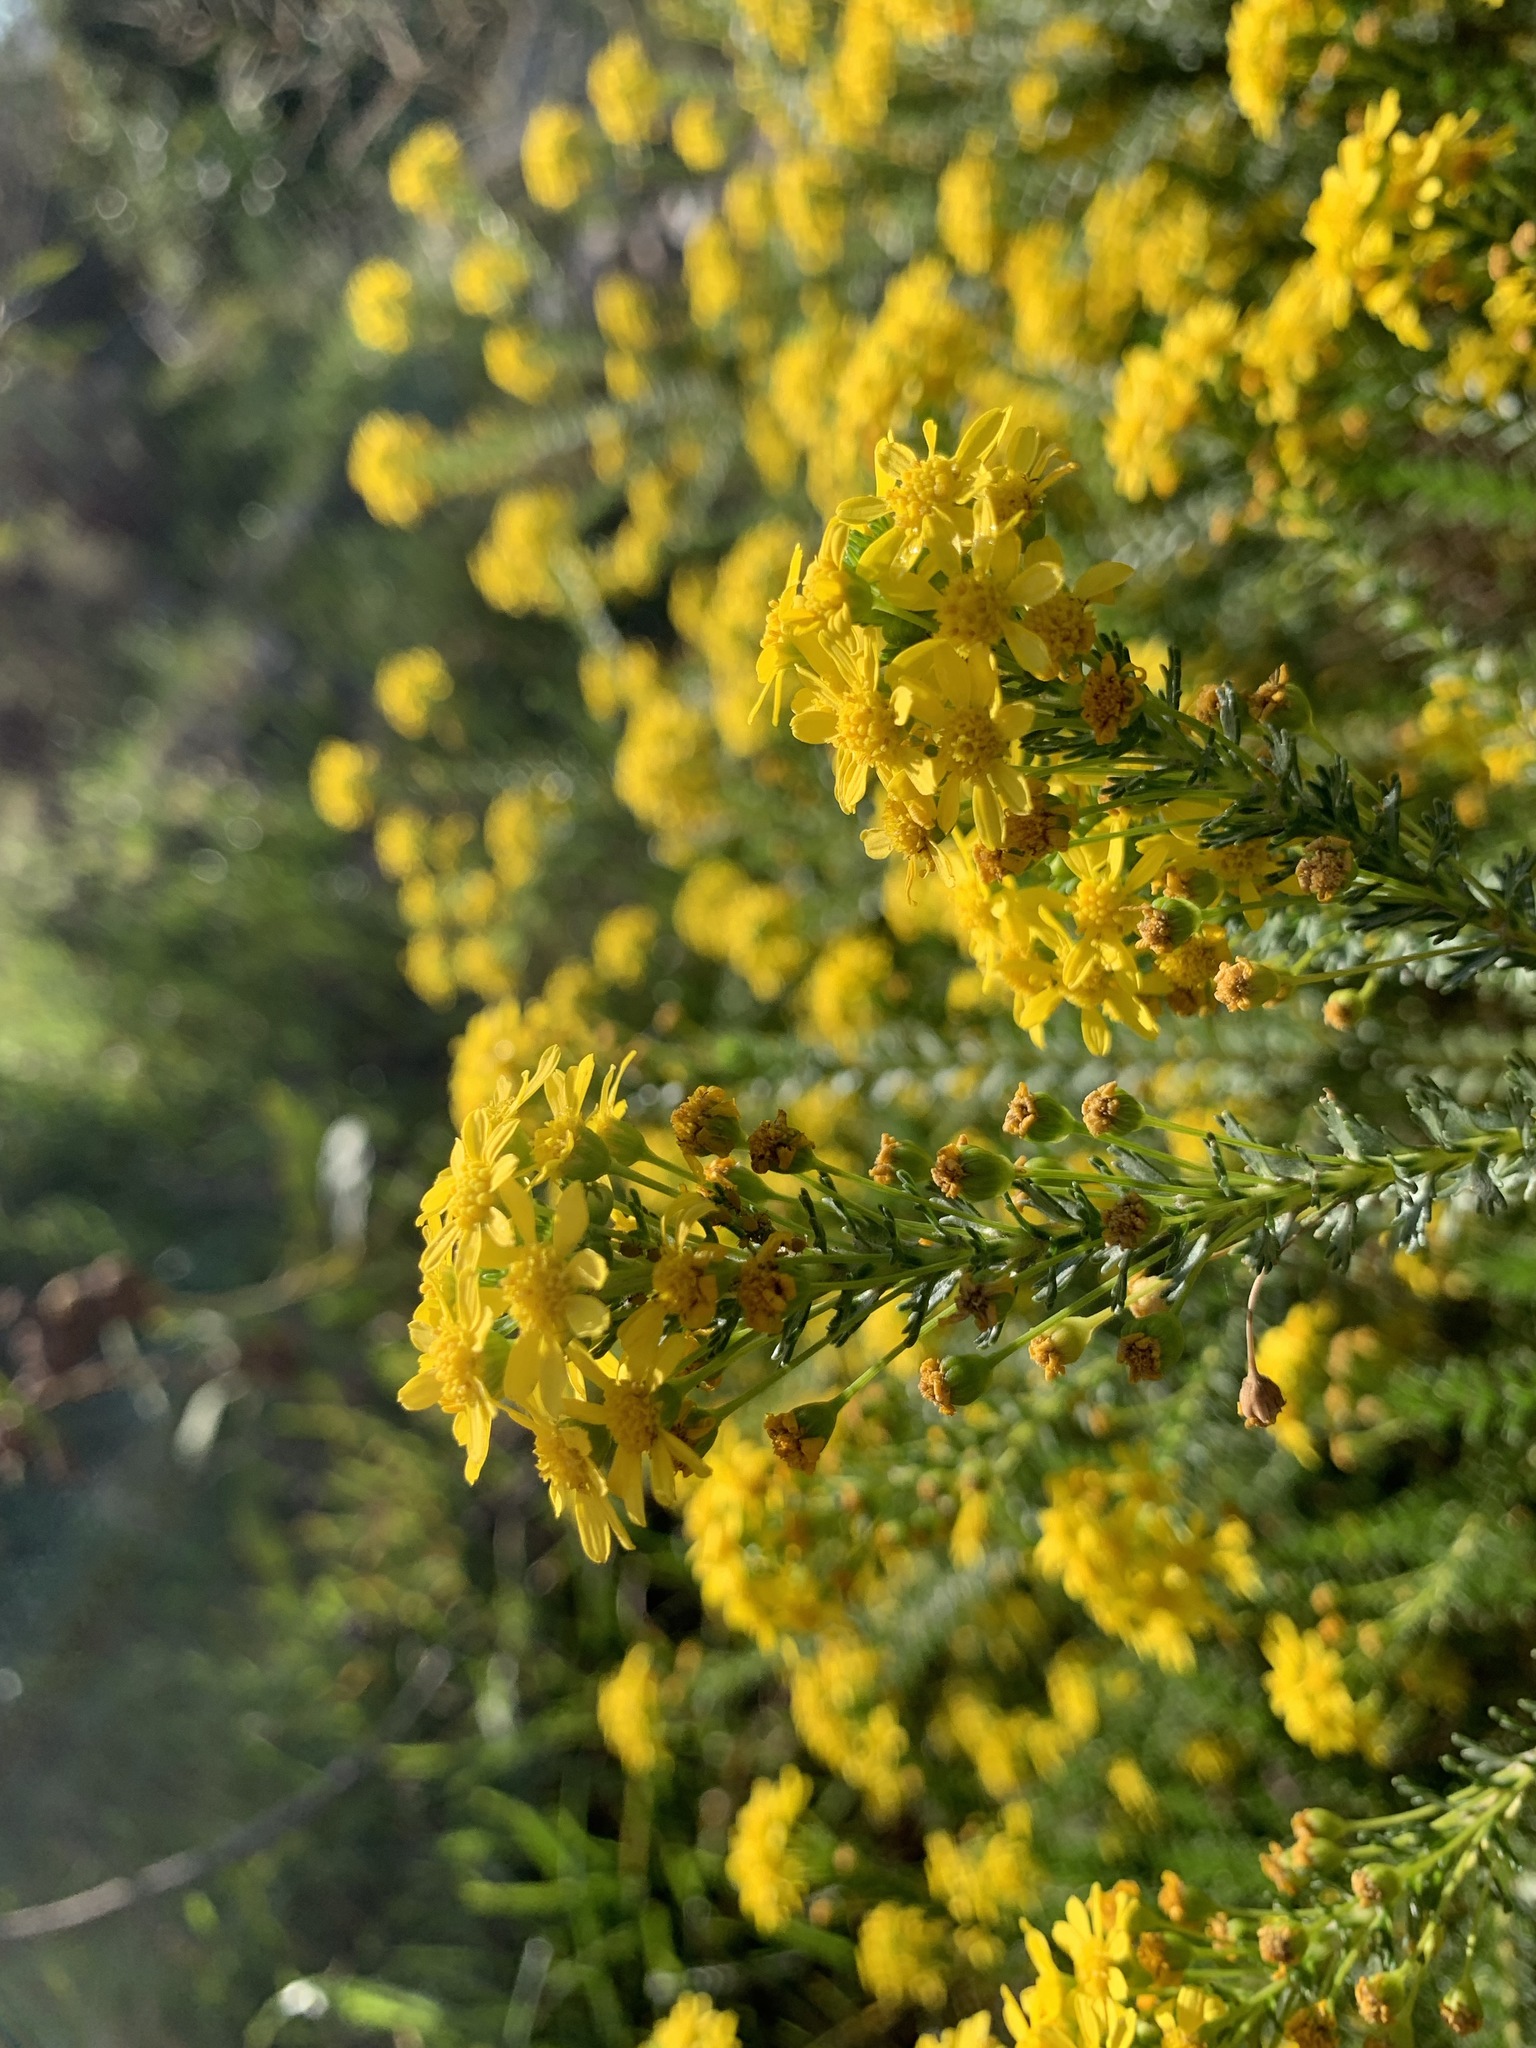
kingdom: Plantae
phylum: Tracheophyta
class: Magnoliopsida
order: Asterales
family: Asteraceae
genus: Euryops
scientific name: Euryops virgineus
